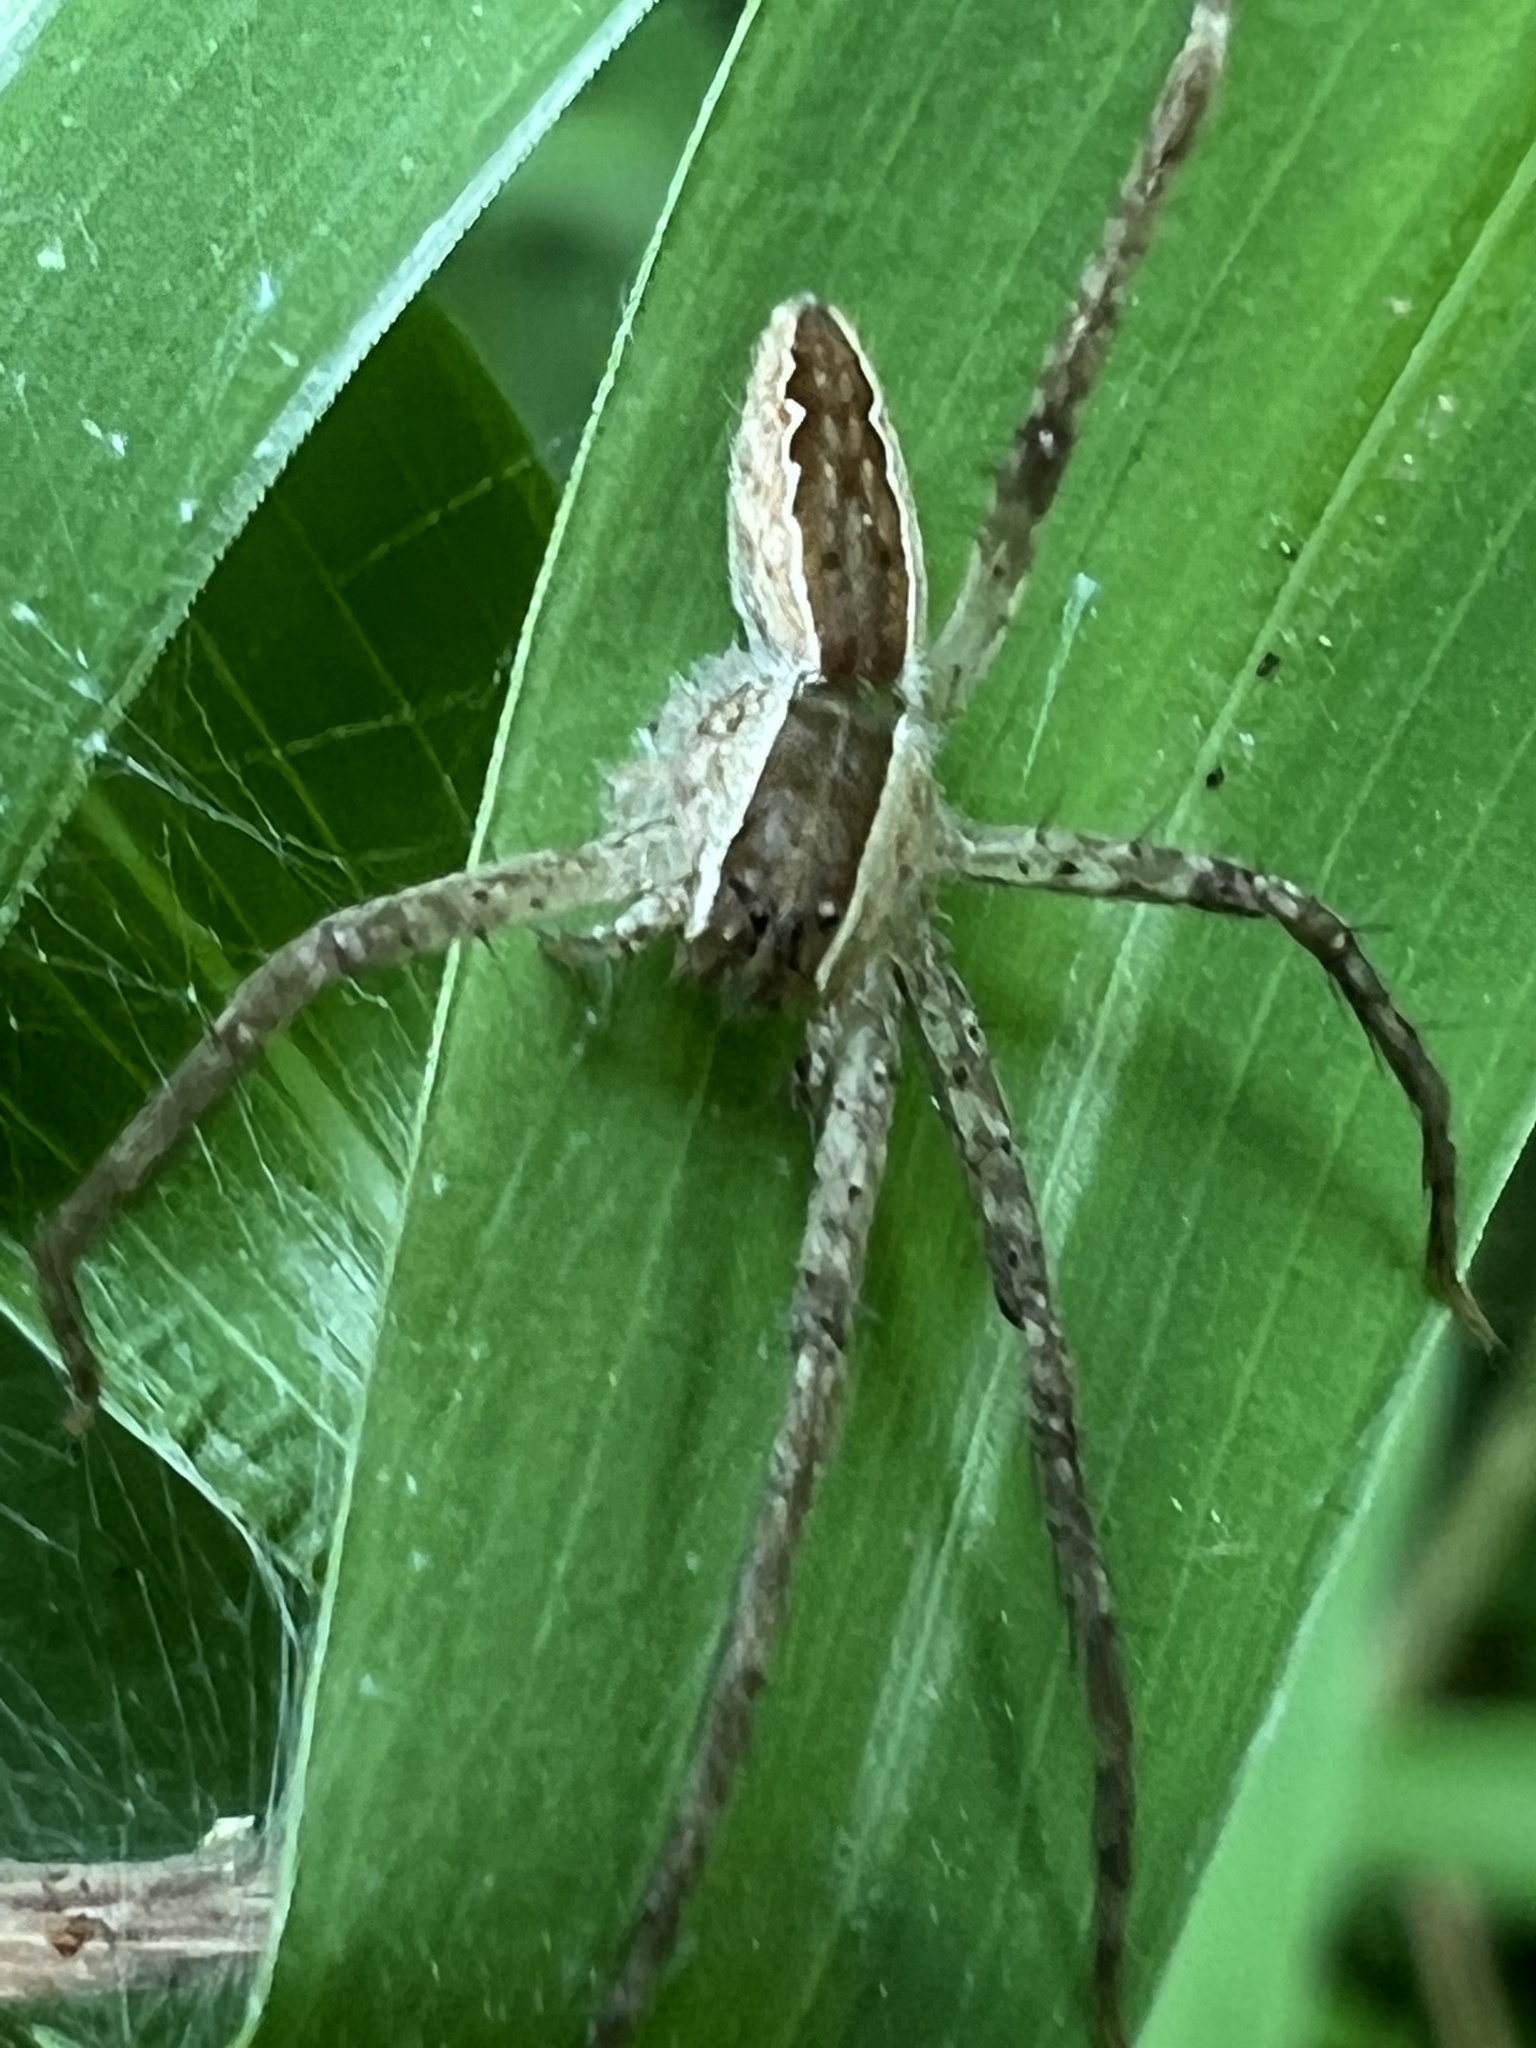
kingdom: Animalia
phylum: Arthropoda
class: Arachnida
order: Araneae
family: Pisauridae
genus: Pisaurina
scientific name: Pisaurina mira
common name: American nursery web spider
